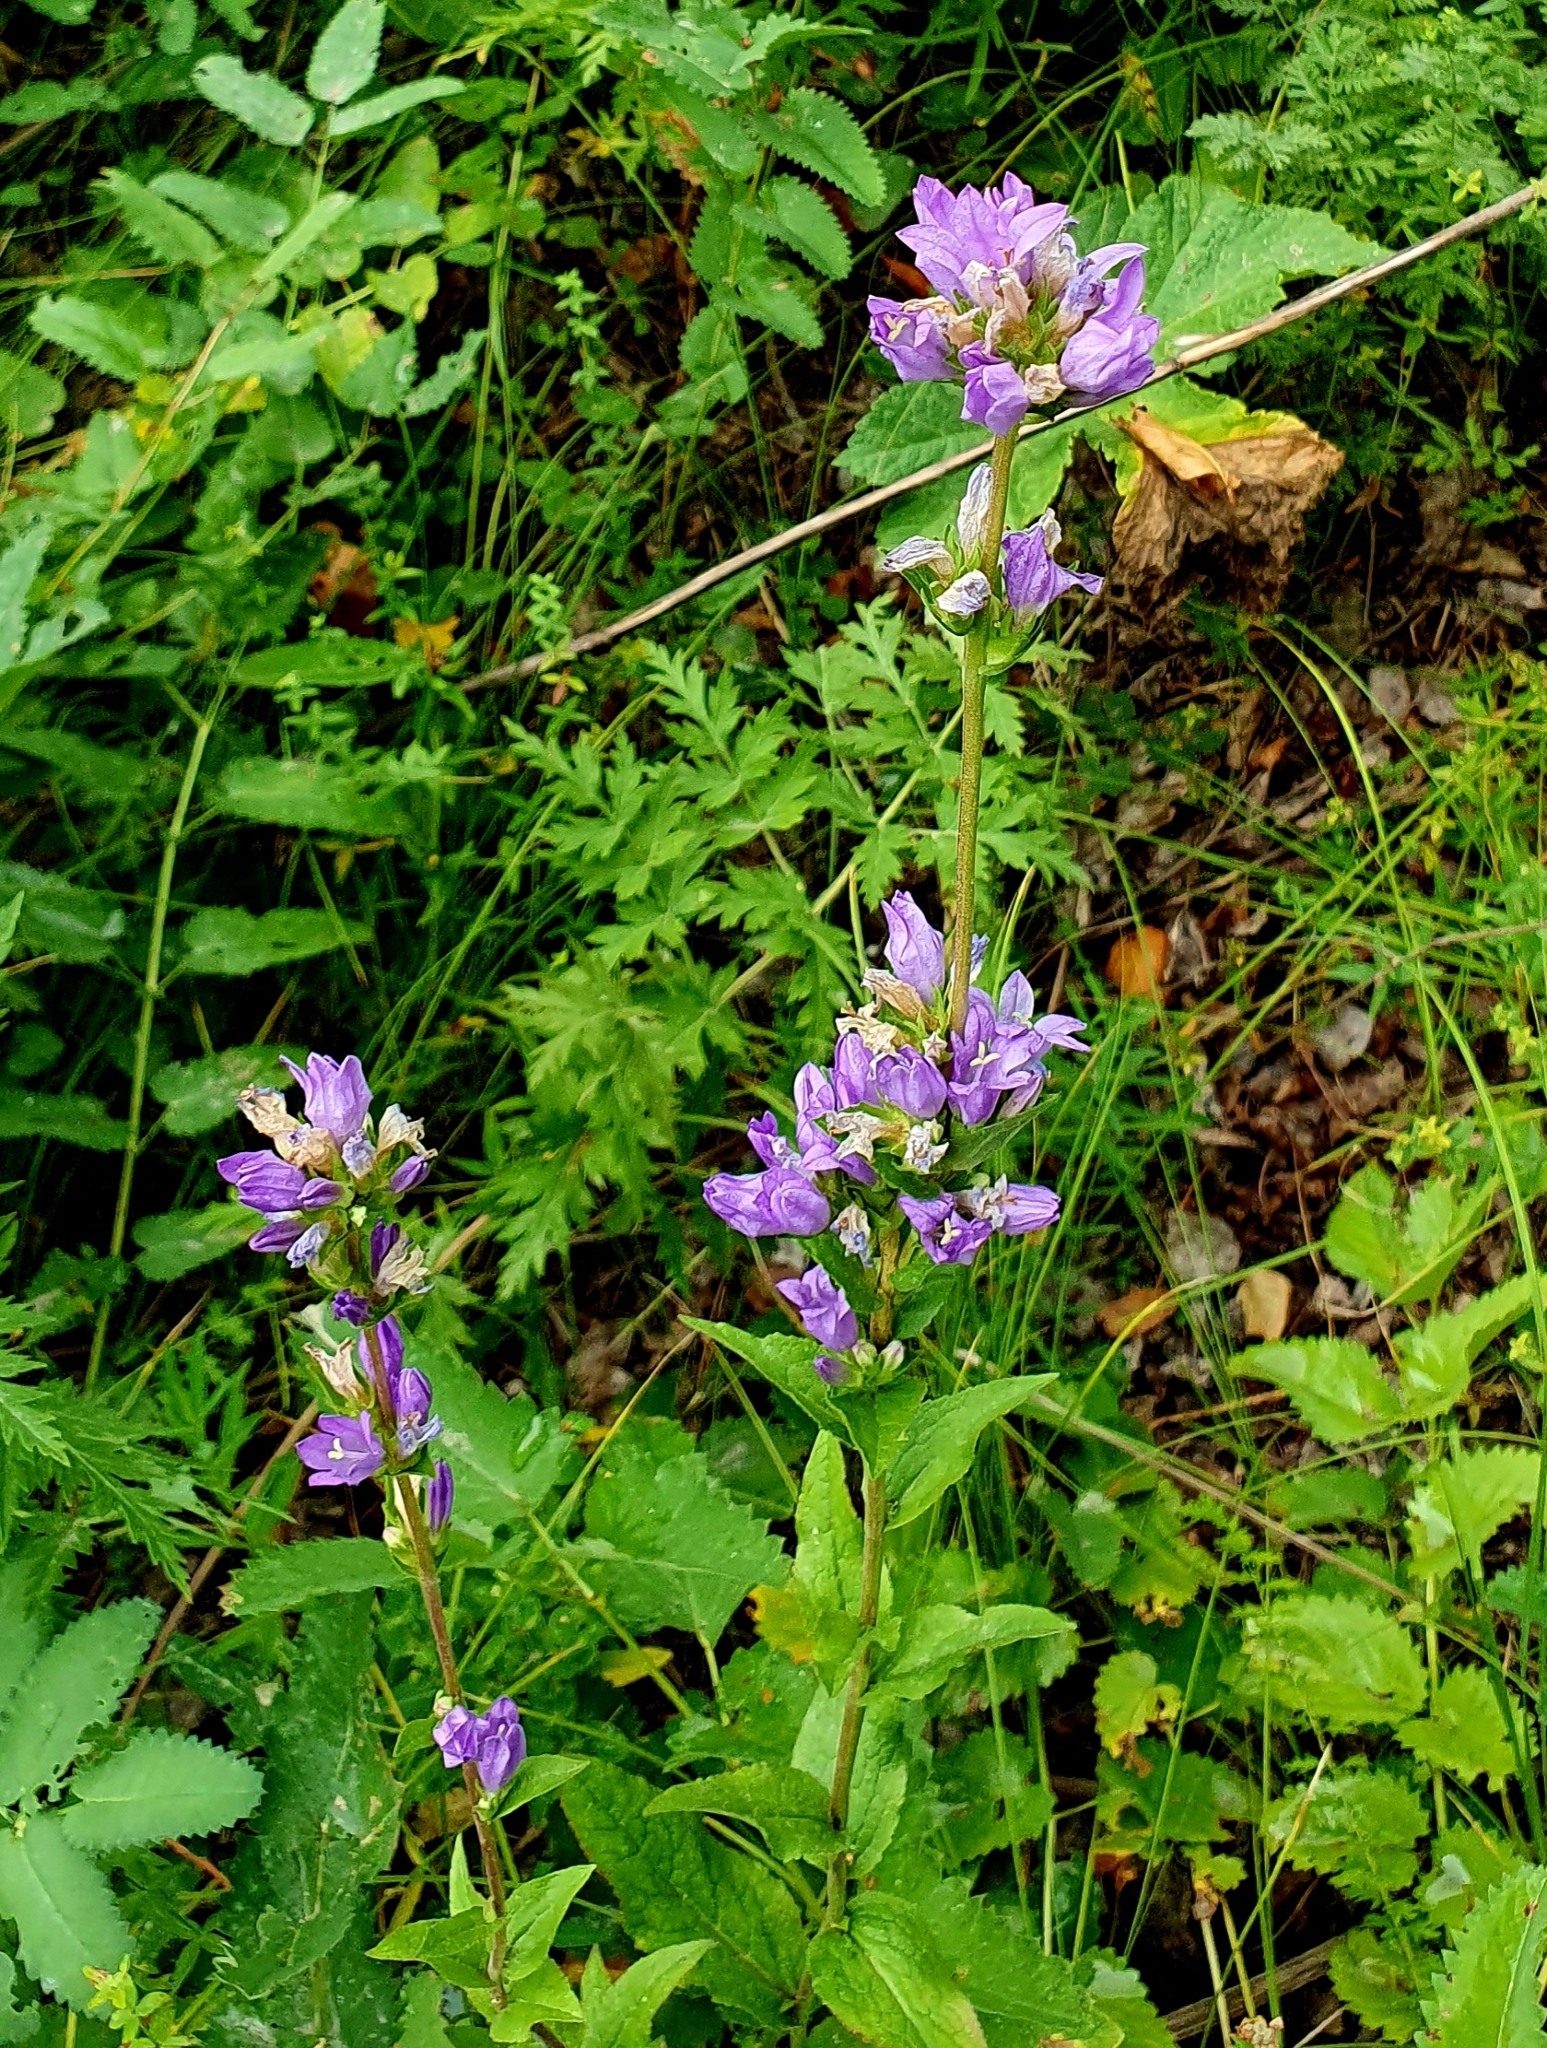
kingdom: Plantae
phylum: Tracheophyta
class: Magnoliopsida
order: Asterales
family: Campanulaceae
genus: Campanula
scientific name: Campanula glomerata
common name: Clustered bellflower
